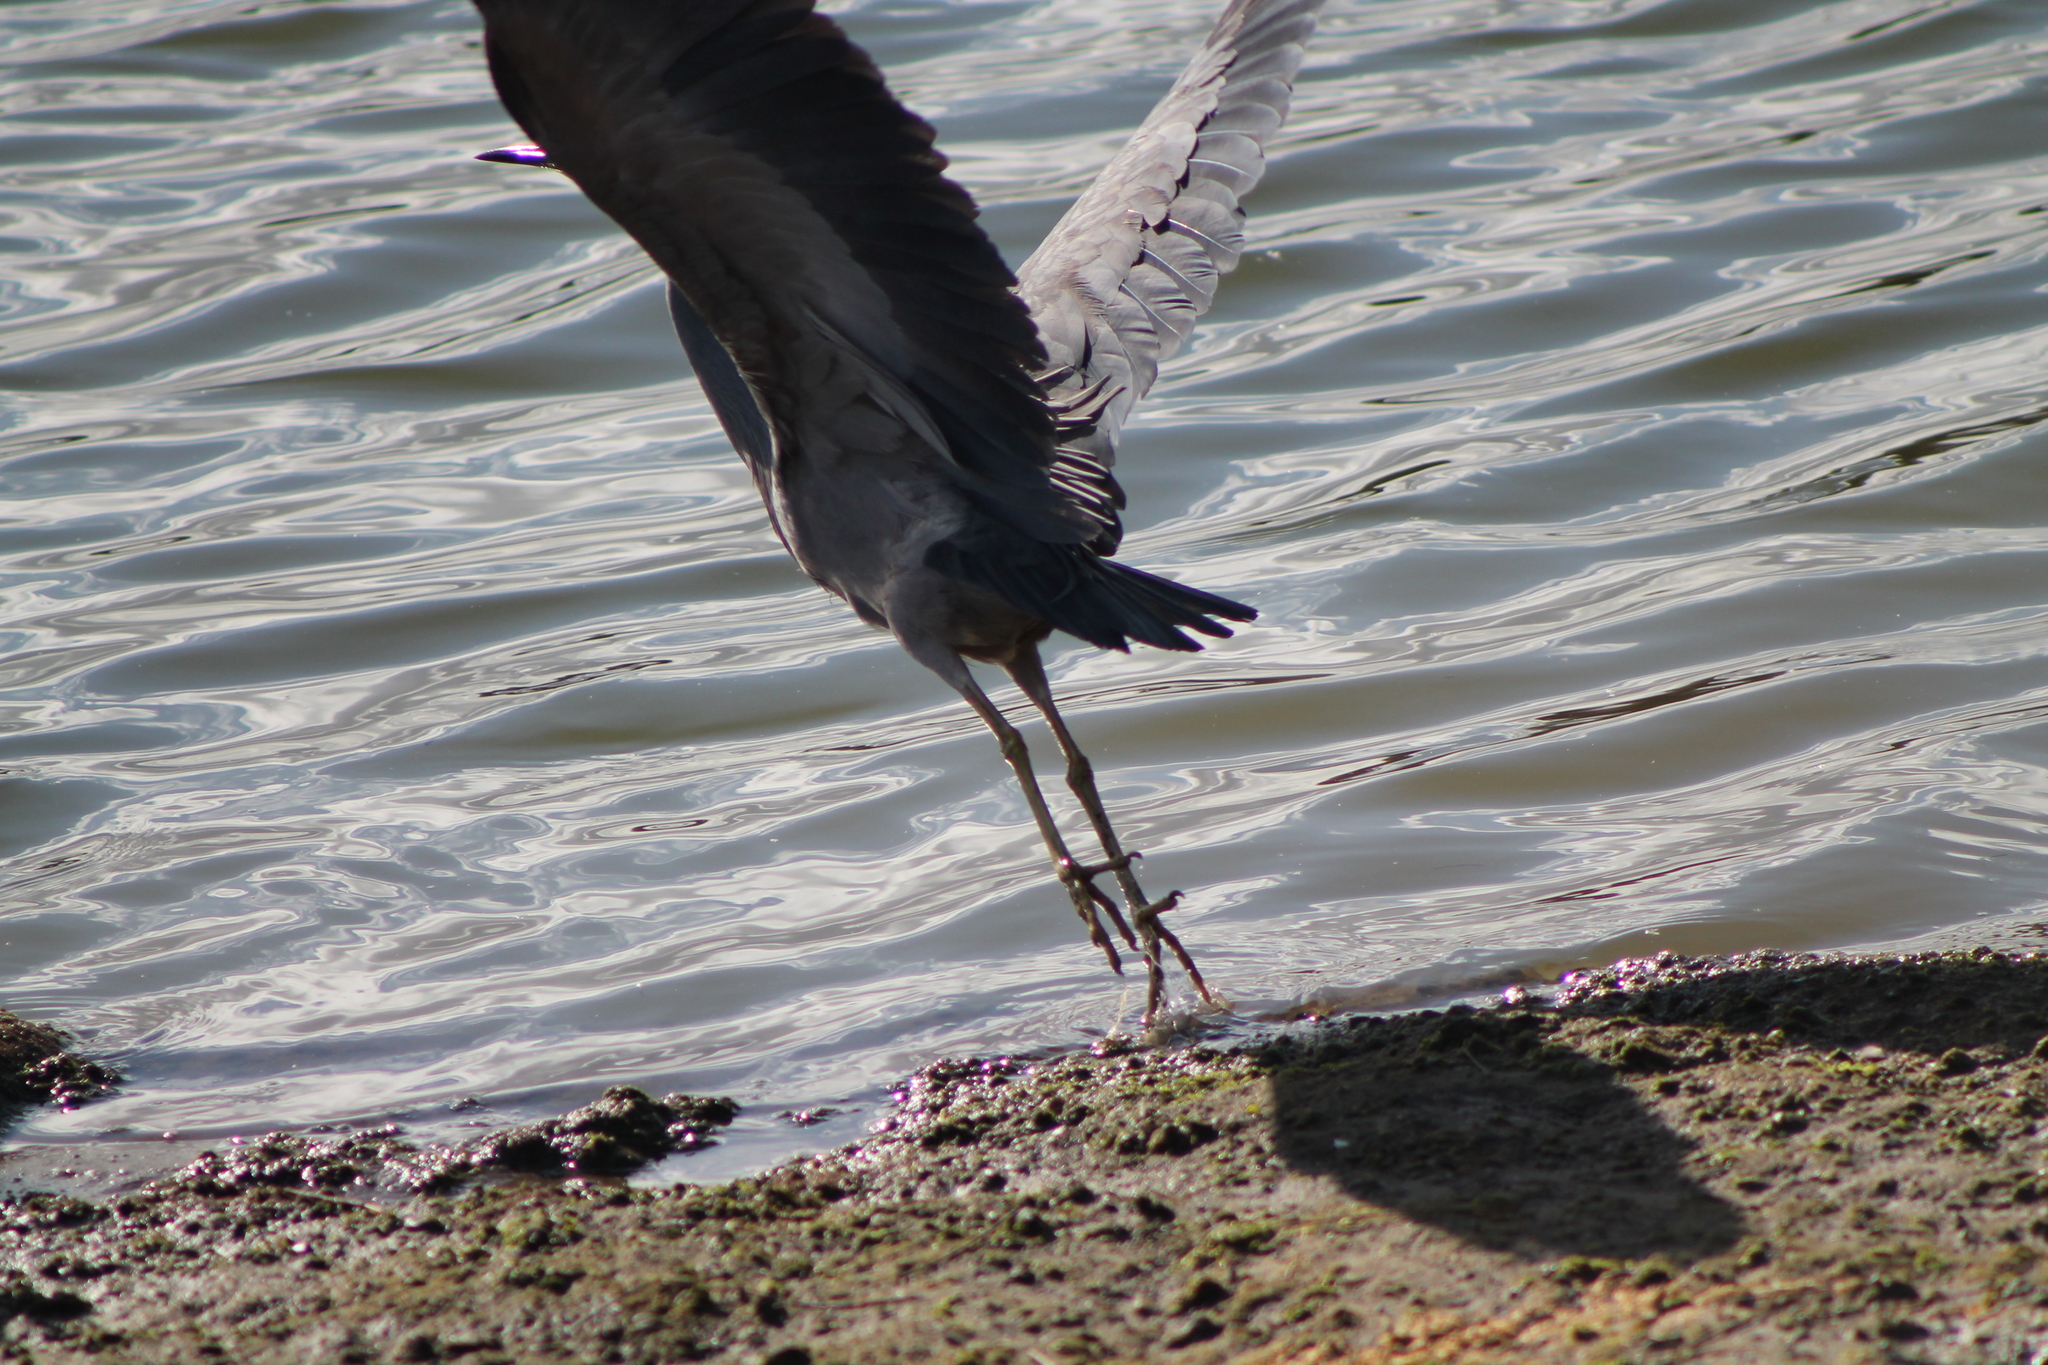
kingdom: Animalia
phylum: Chordata
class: Aves
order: Pelecaniformes
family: Ardeidae
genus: Egretta
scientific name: Egretta novaehollandiae
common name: White-faced heron
